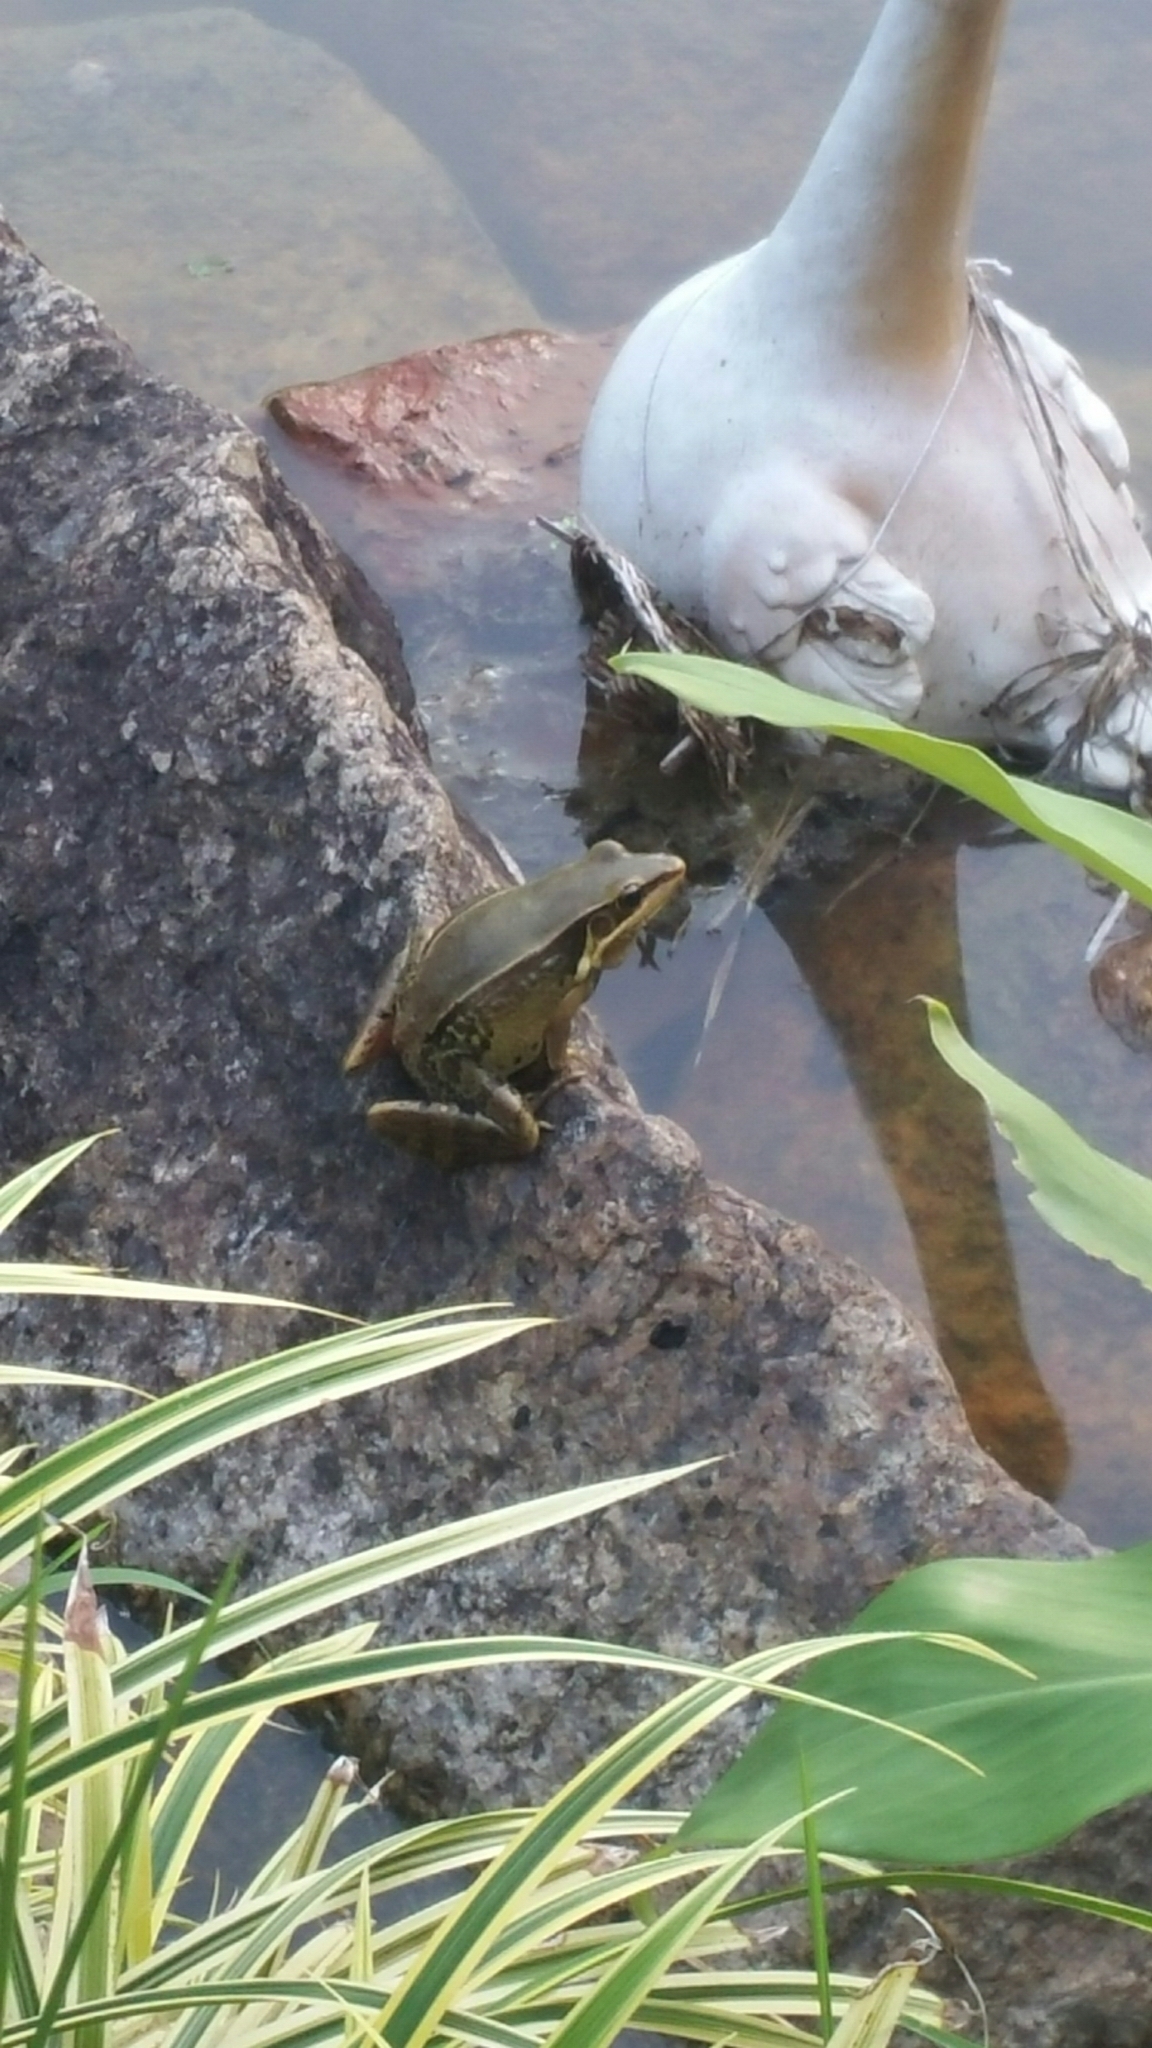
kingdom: Animalia
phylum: Chordata
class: Amphibia
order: Anura
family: Ranidae
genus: Sylvirana
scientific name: Sylvirana guentheri
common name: Guenther's amoy frog
